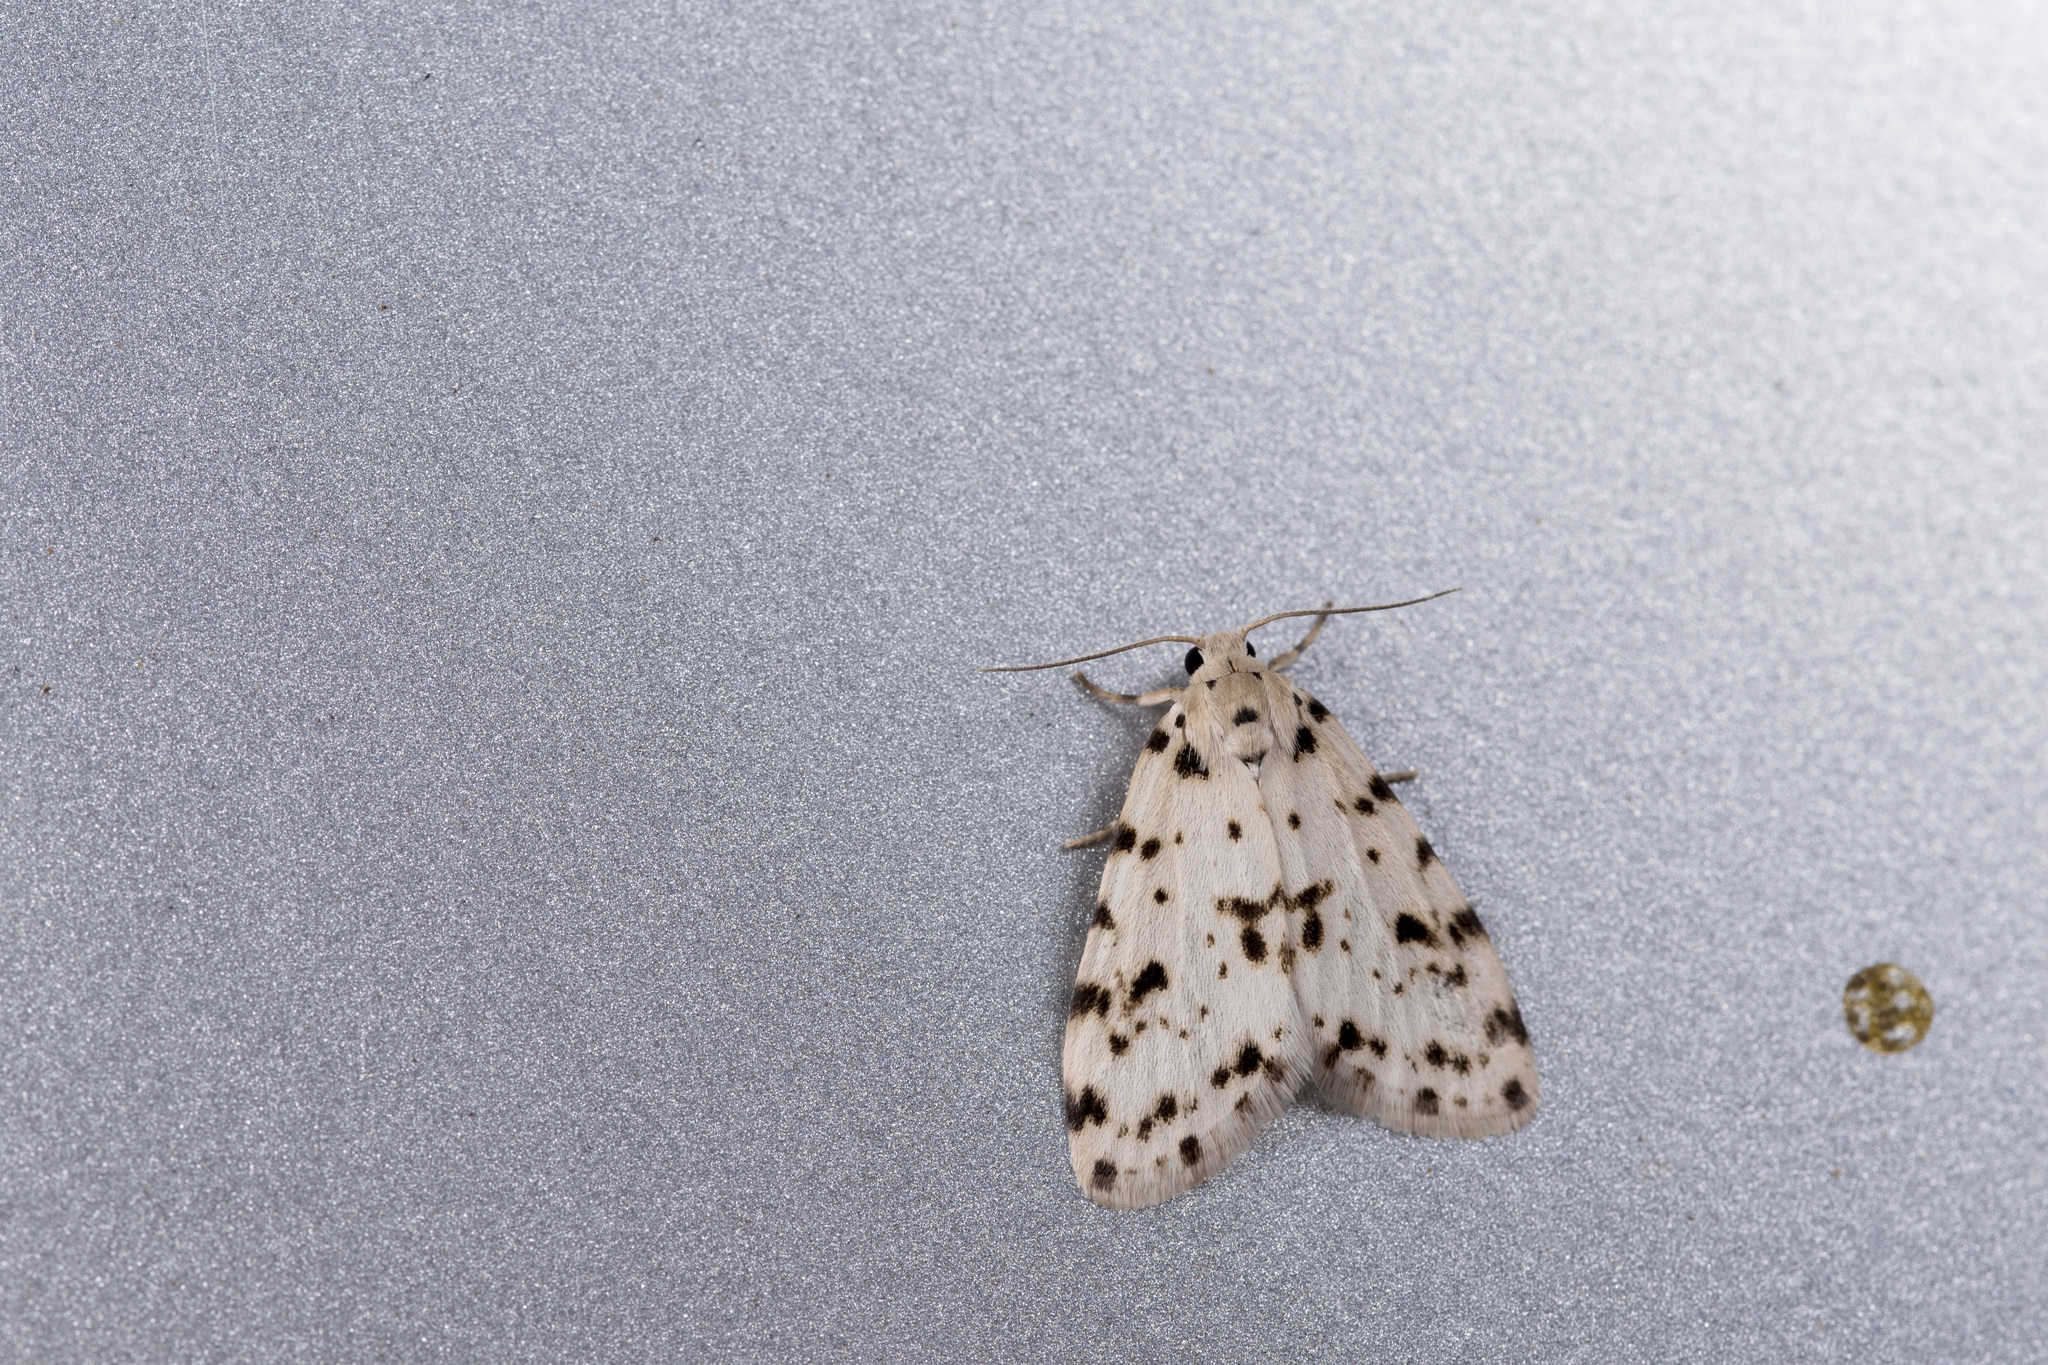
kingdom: Animalia
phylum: Arthropoda
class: Insecta
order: Lepidoptera
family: Erebidae
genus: Siccia
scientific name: Siccia Aemene taiwana
